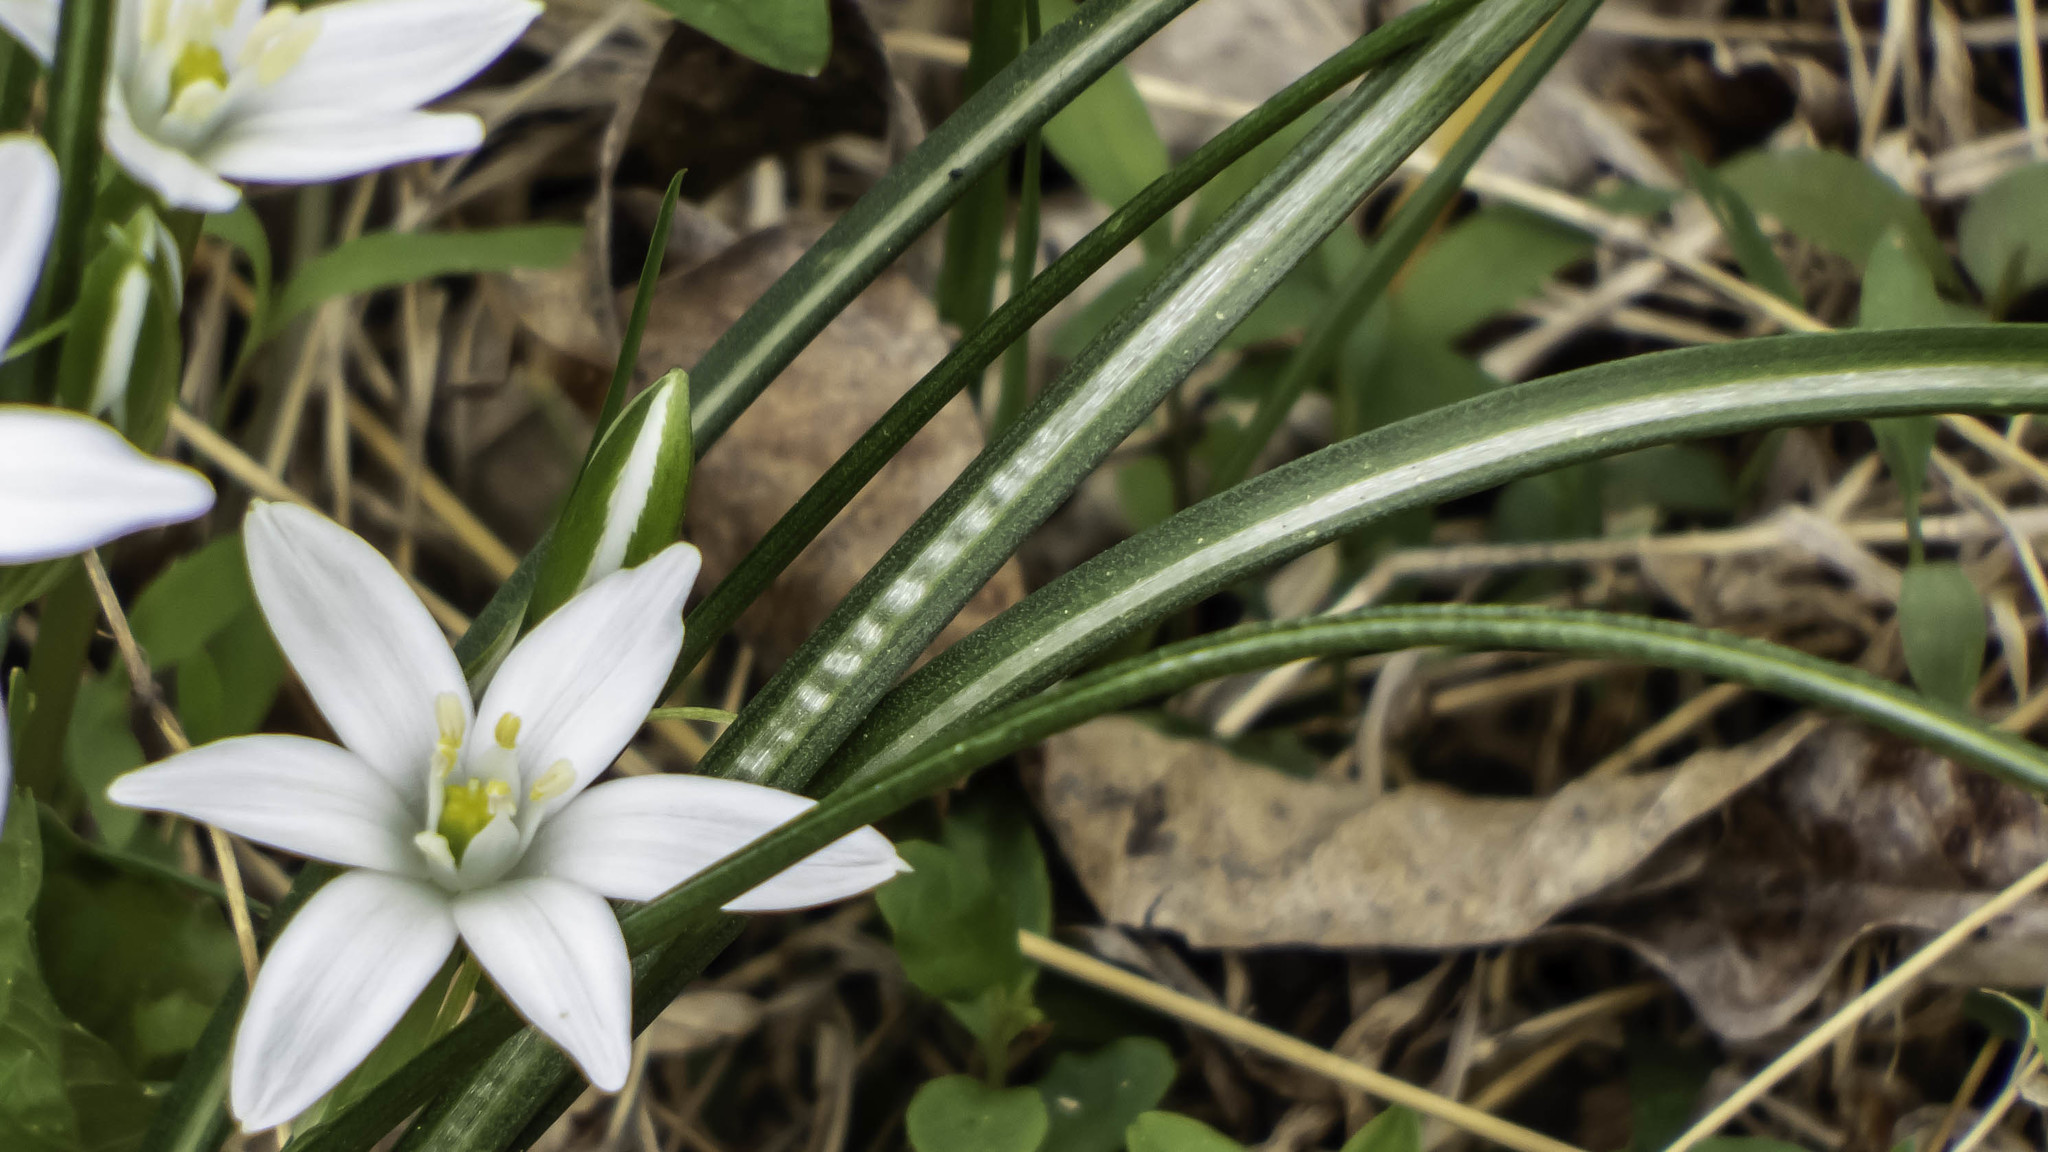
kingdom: Plantae
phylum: Tracheophyta
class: Liliopsida
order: Asparagales
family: Asparagaceae
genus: Ornithogalum
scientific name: Ornithogalum umbellatum
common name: Garden star-of-bethlehem
